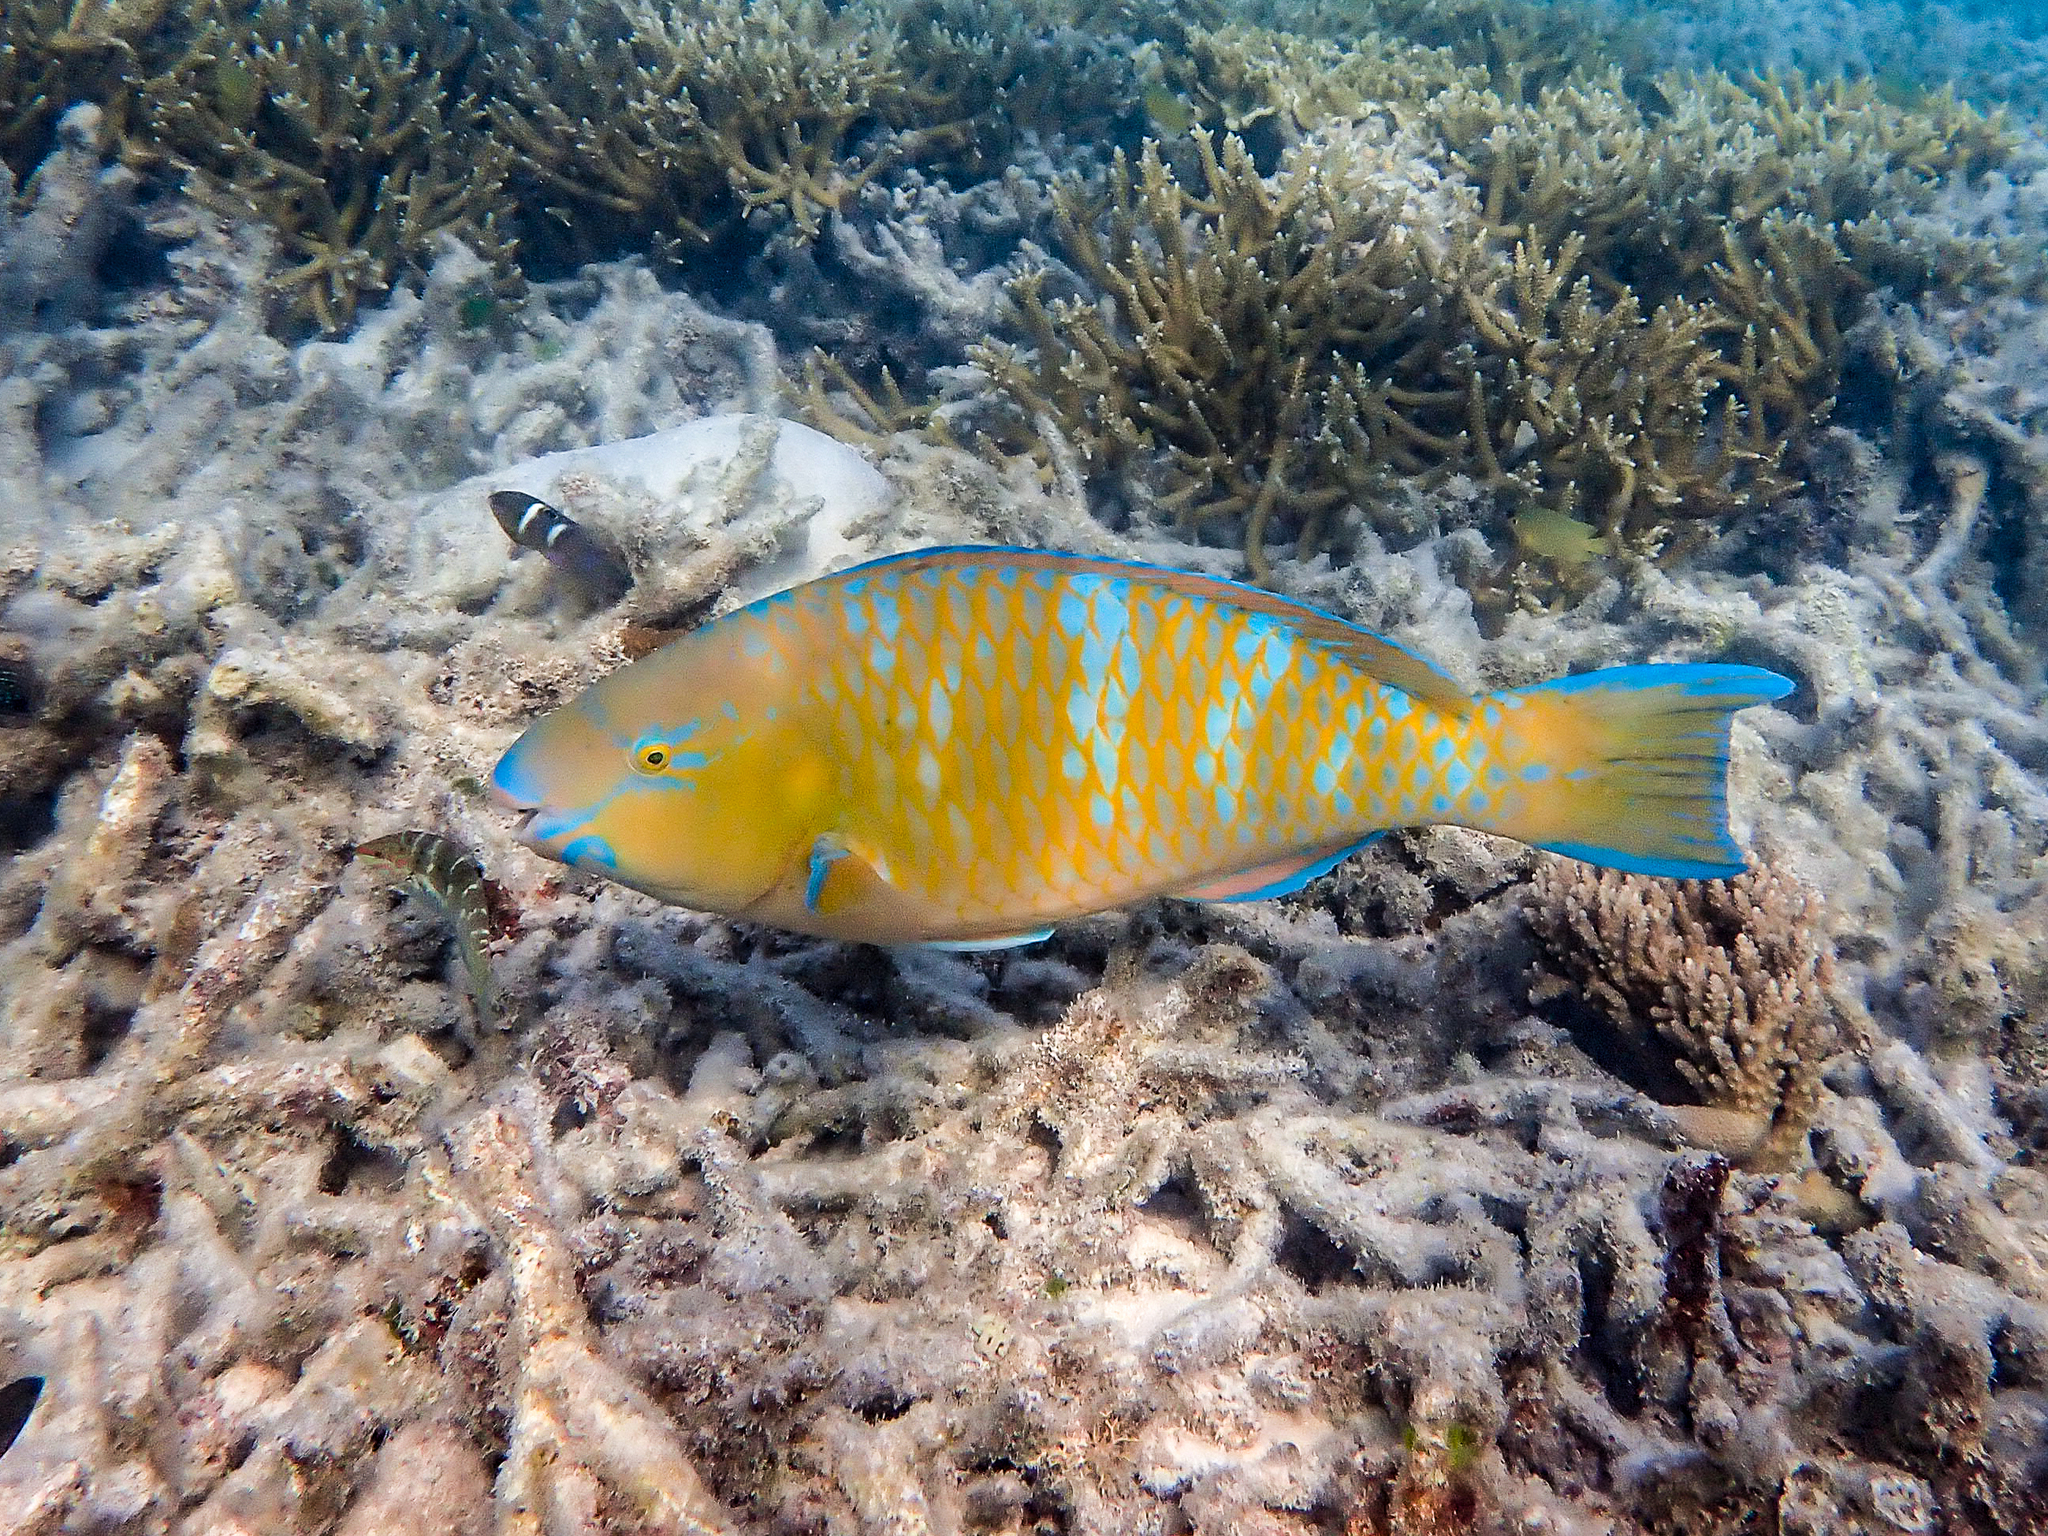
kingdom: Animalia
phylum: Chordata
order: Perciformes
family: Scaridae
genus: Scarus
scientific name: Scarus ghobban
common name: Blue-barred parrotfish
